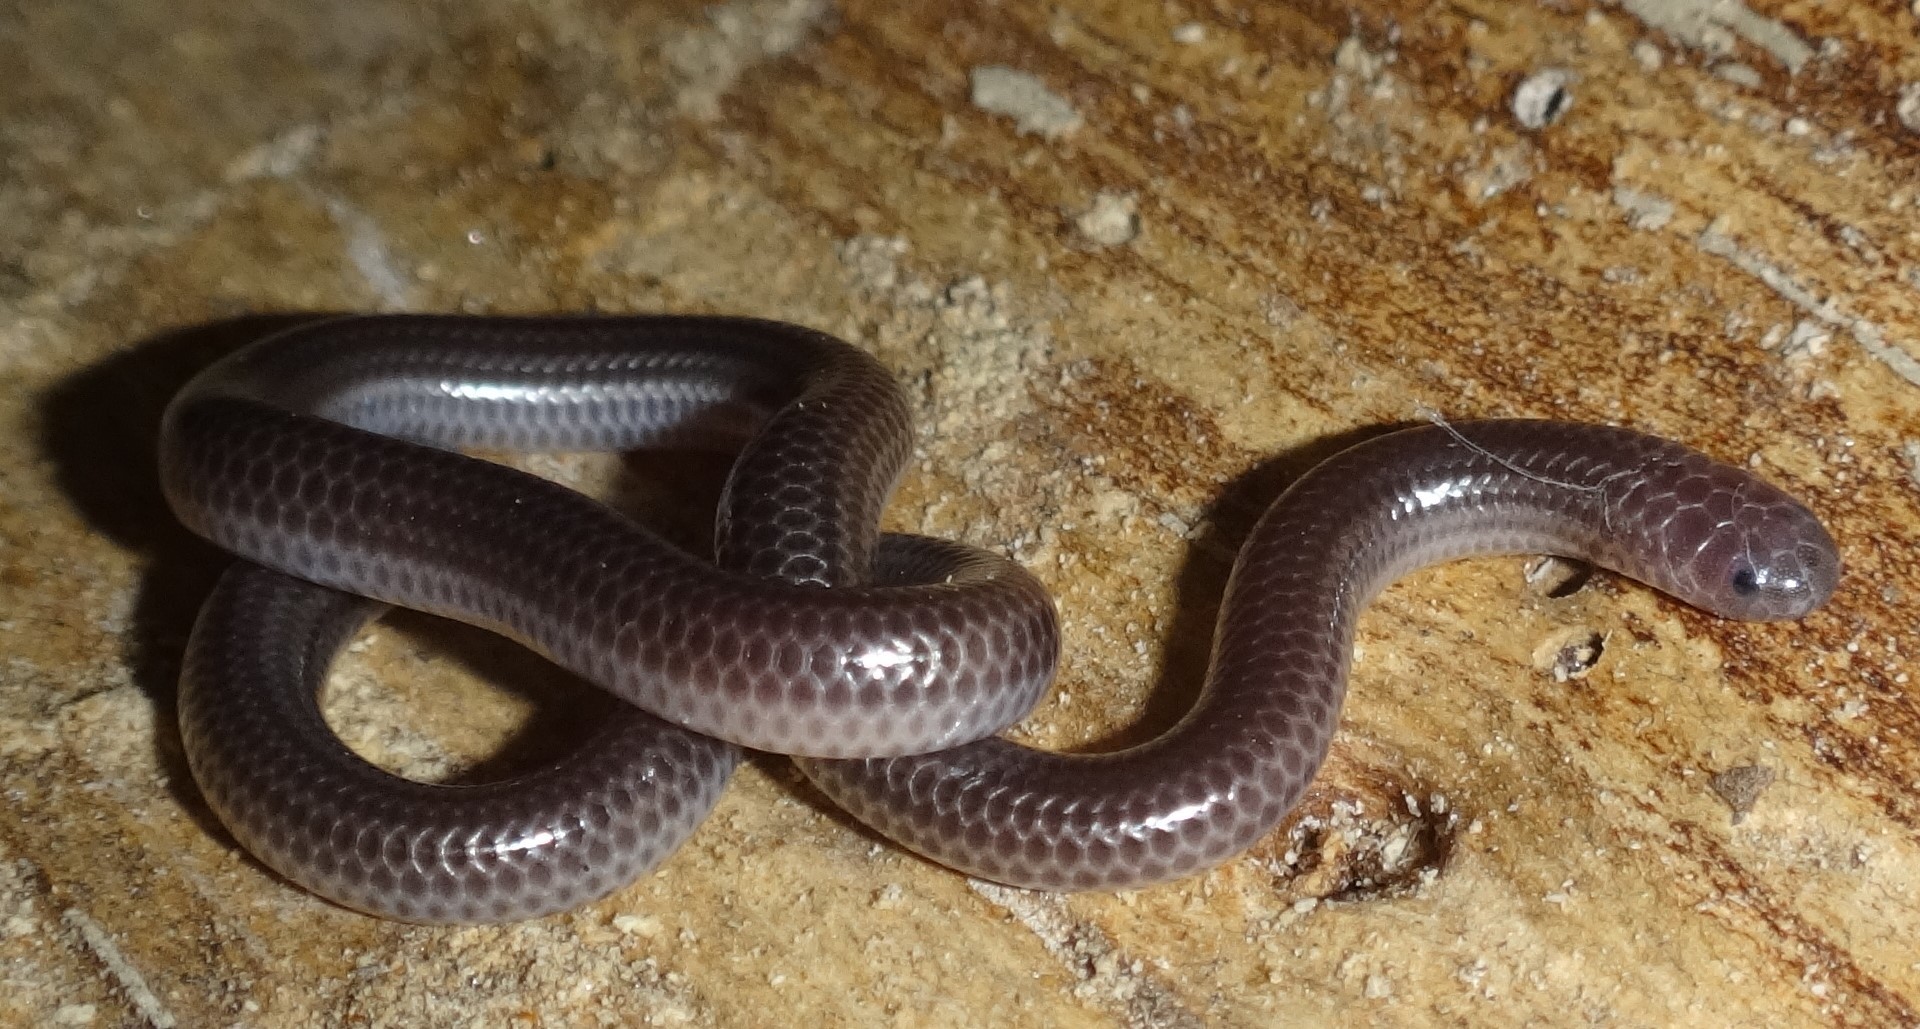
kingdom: Animalia
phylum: Chordata
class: Squamata
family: Leptotyphlopidae
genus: Trilepida
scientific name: Trilepida macrolepis
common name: Big-scaled blind snake
